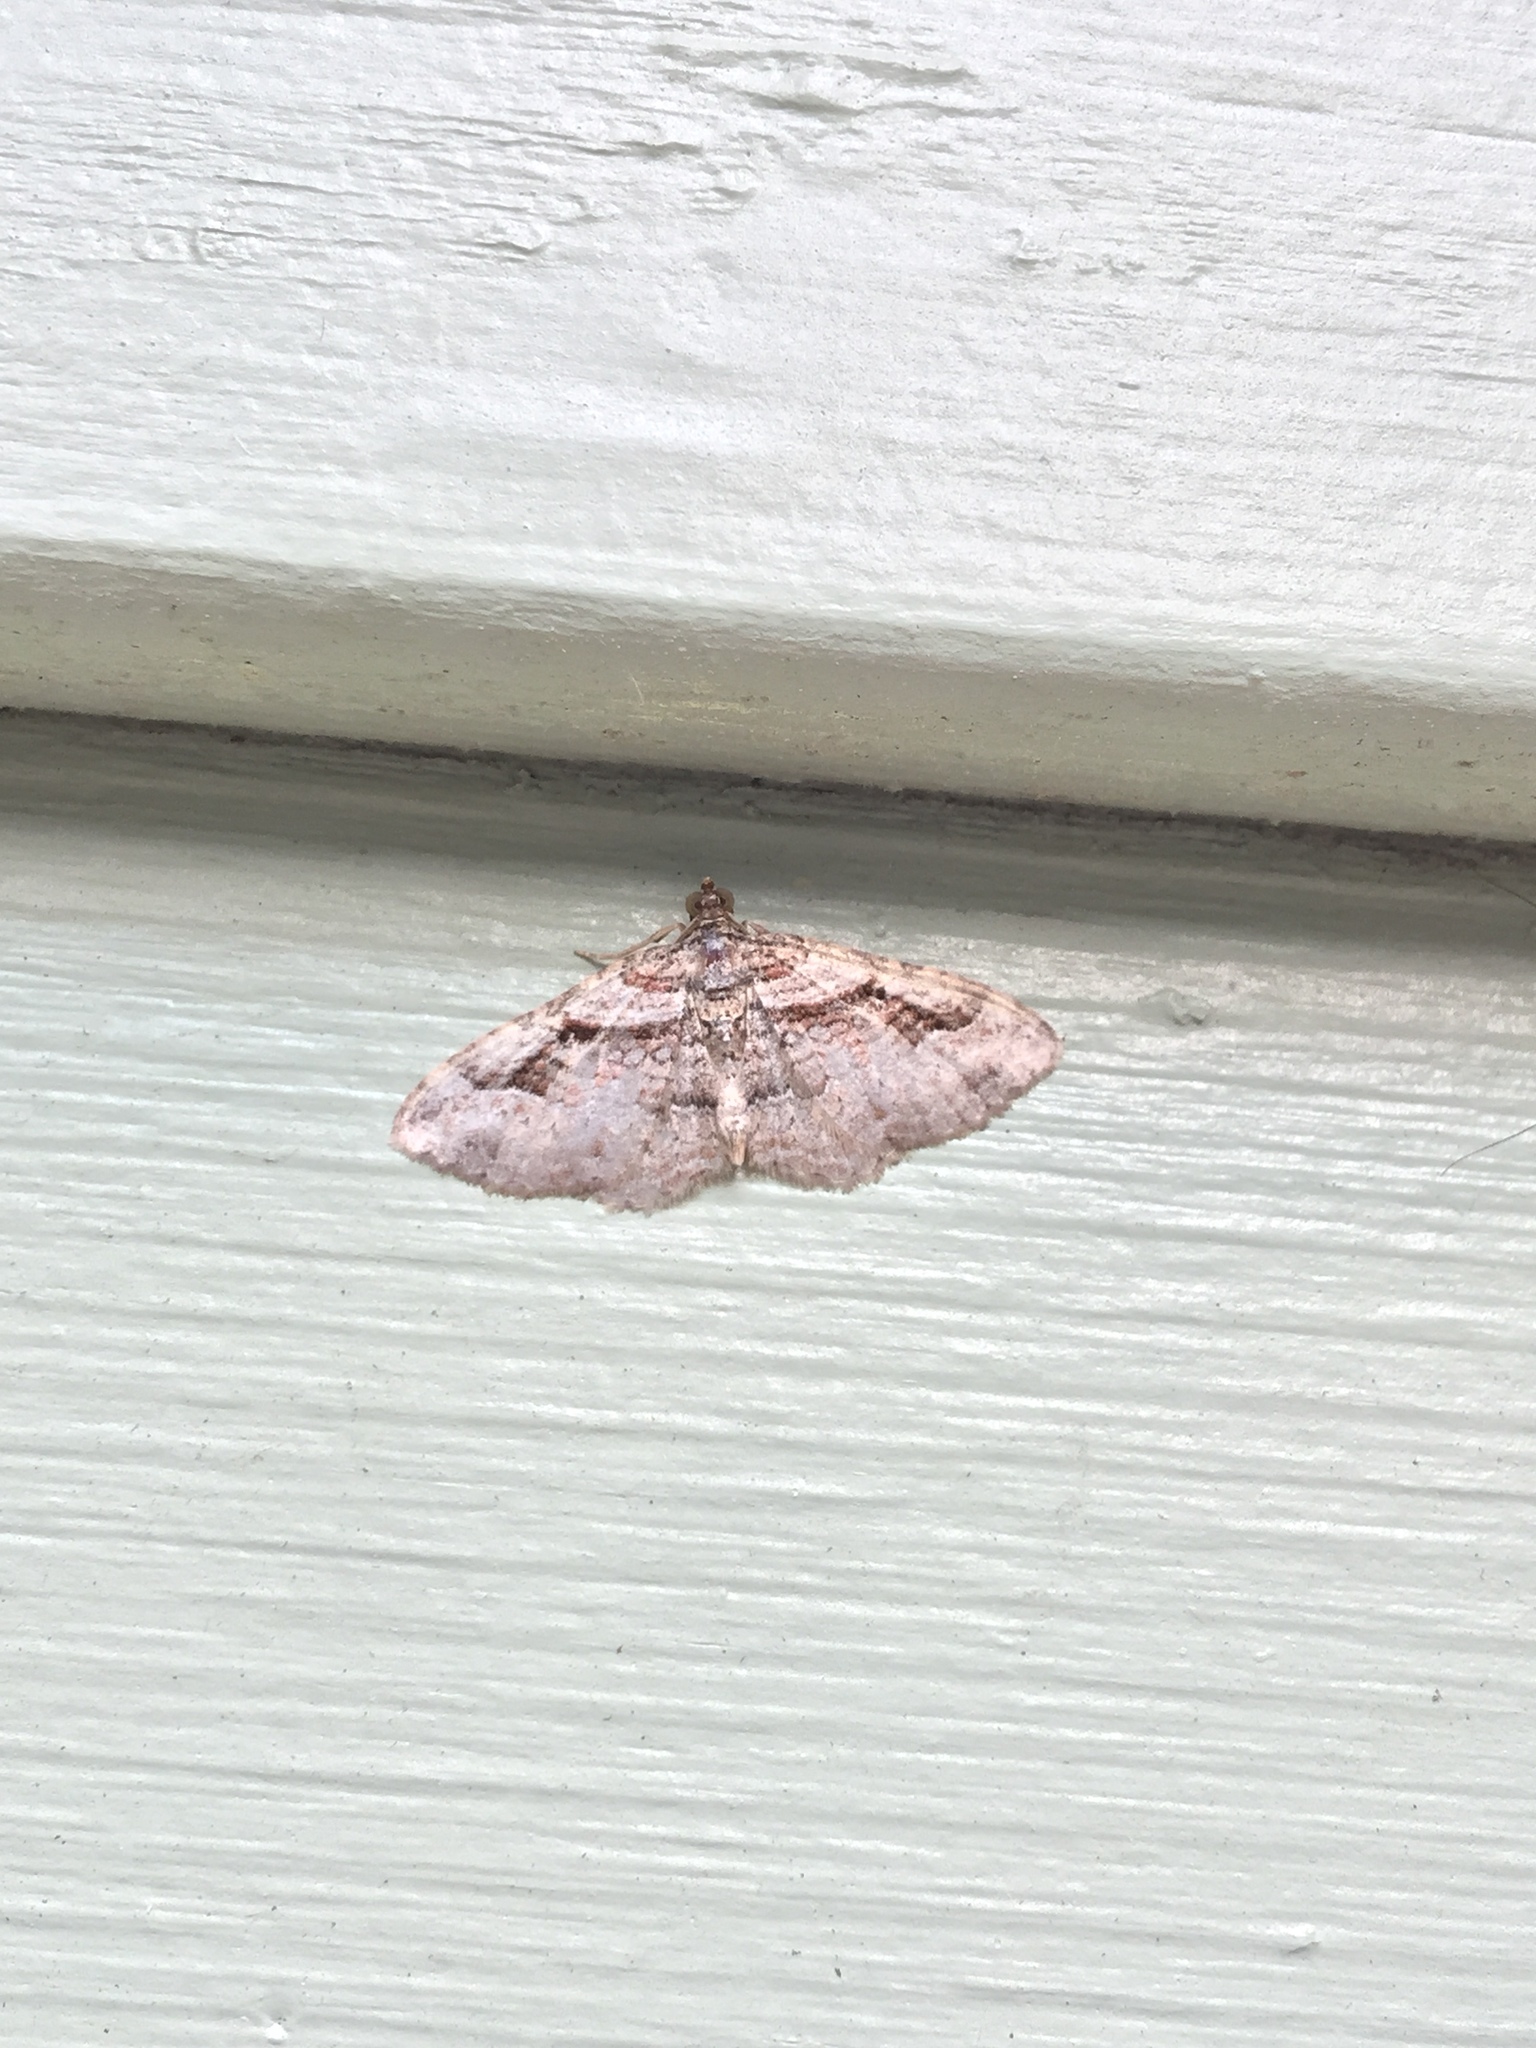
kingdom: Animalia
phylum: Arthropoda
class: Insecta
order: Lepidoptera
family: Geometridae
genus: Costaconvexa
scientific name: Costaconvexa centrostrigaria
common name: Bent-line carpet
